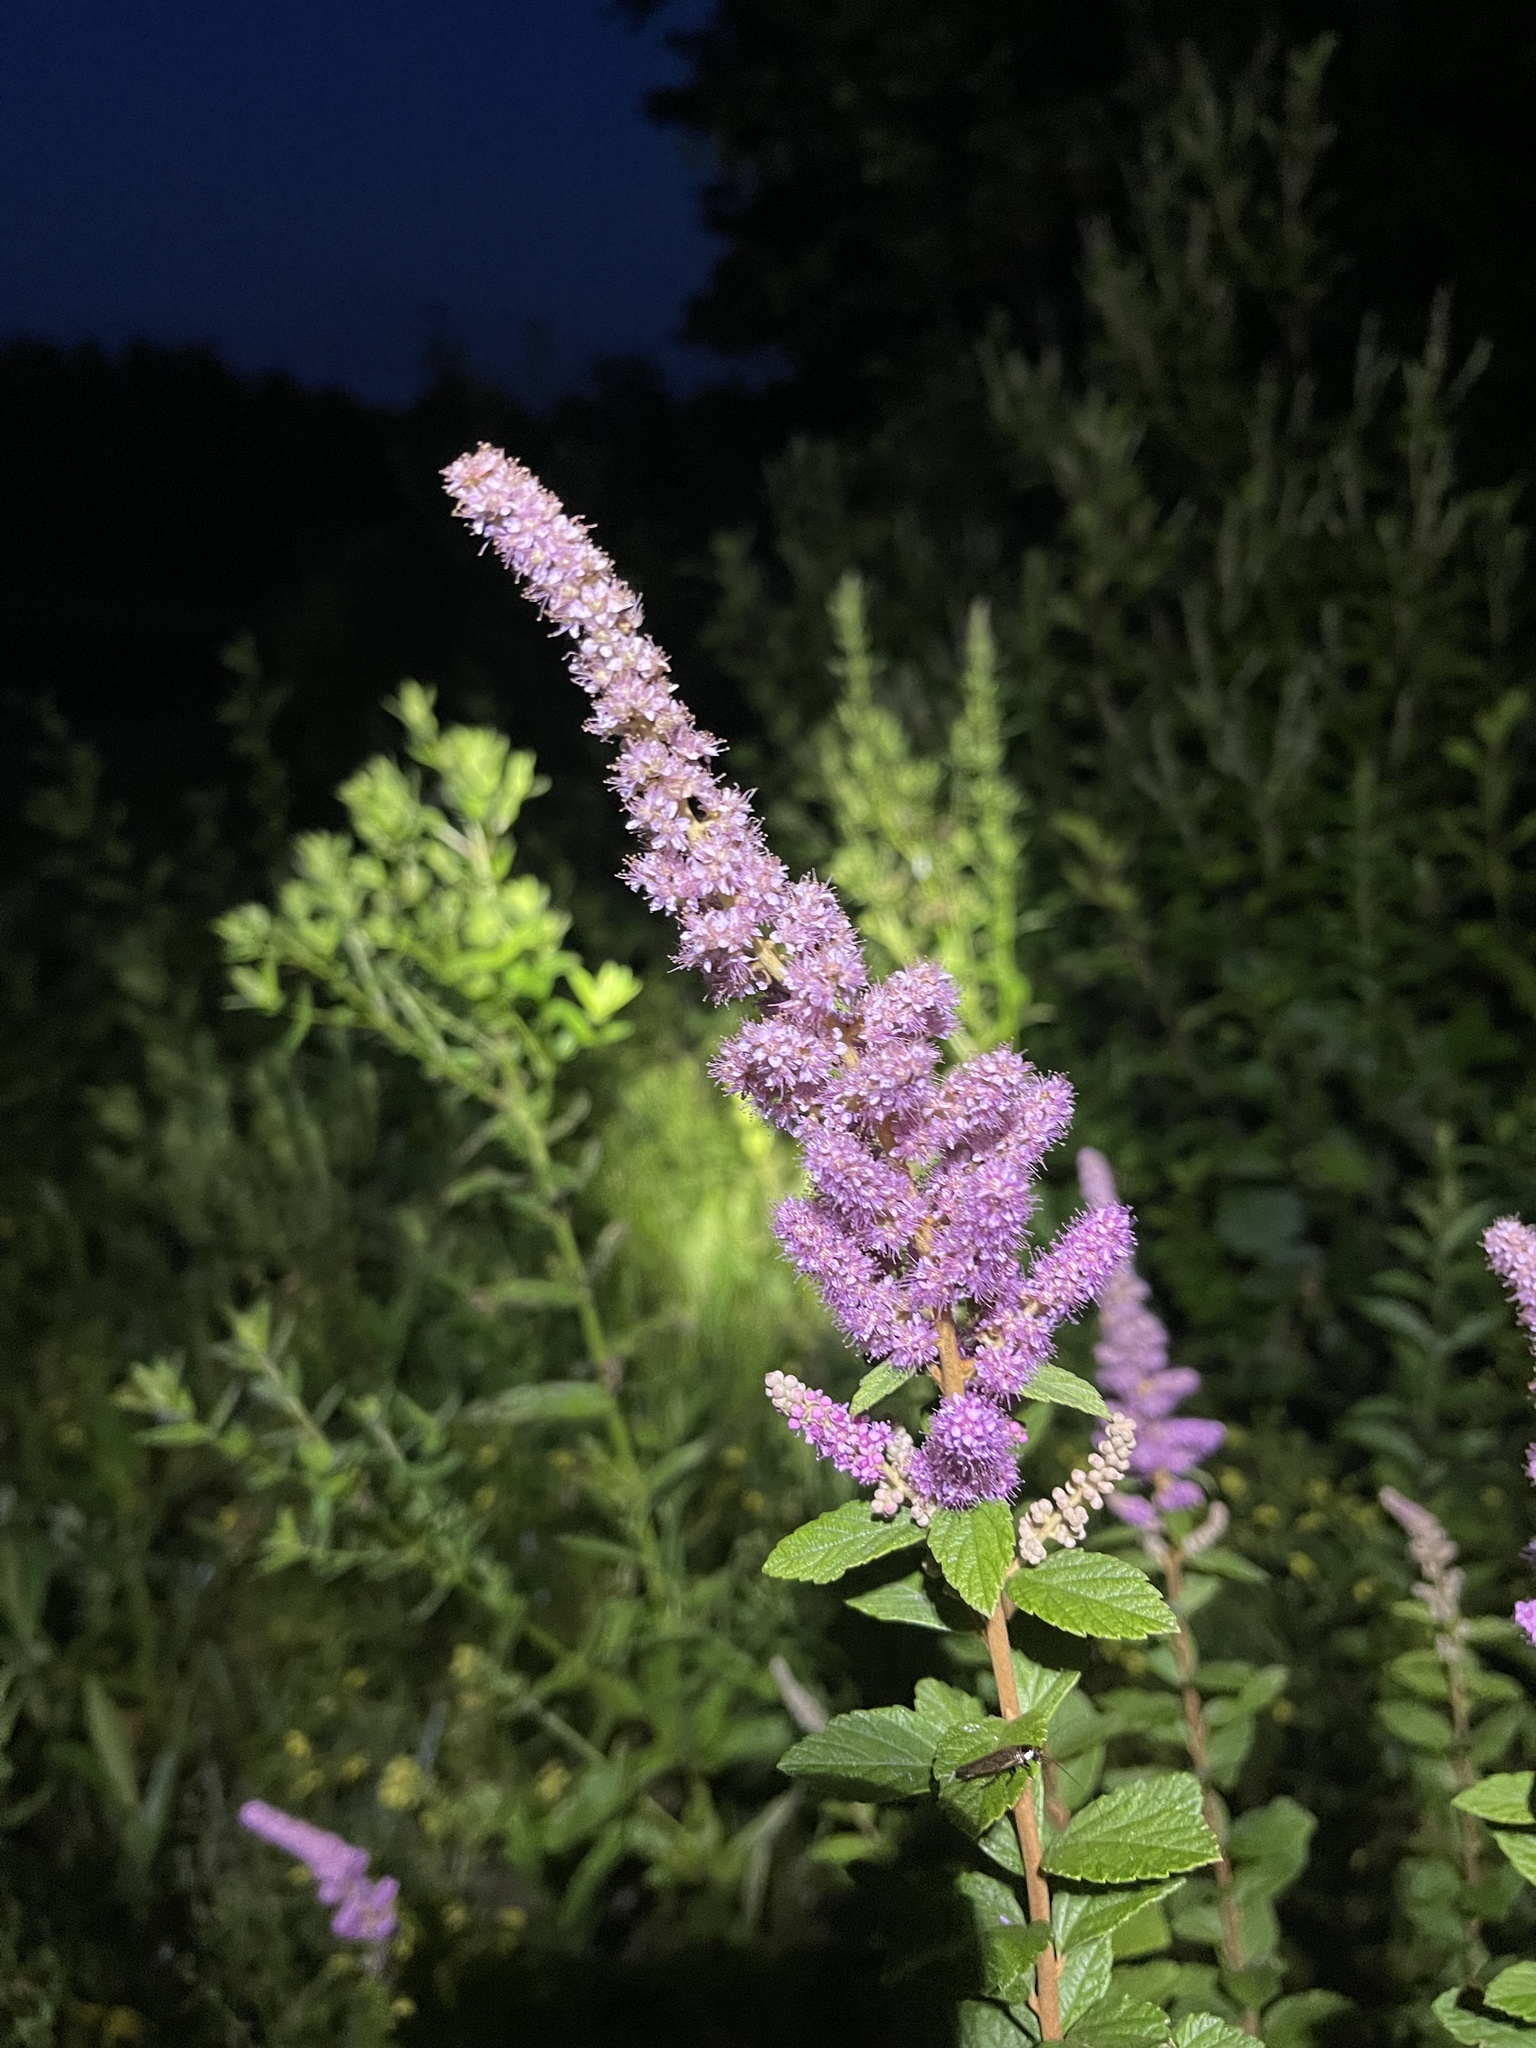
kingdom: Plantae
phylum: Tracheophyta
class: Magnoliopsida
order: Rosales
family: Rosaceae
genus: Spiraea
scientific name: Spiraea tomentosa
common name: Hardhack
